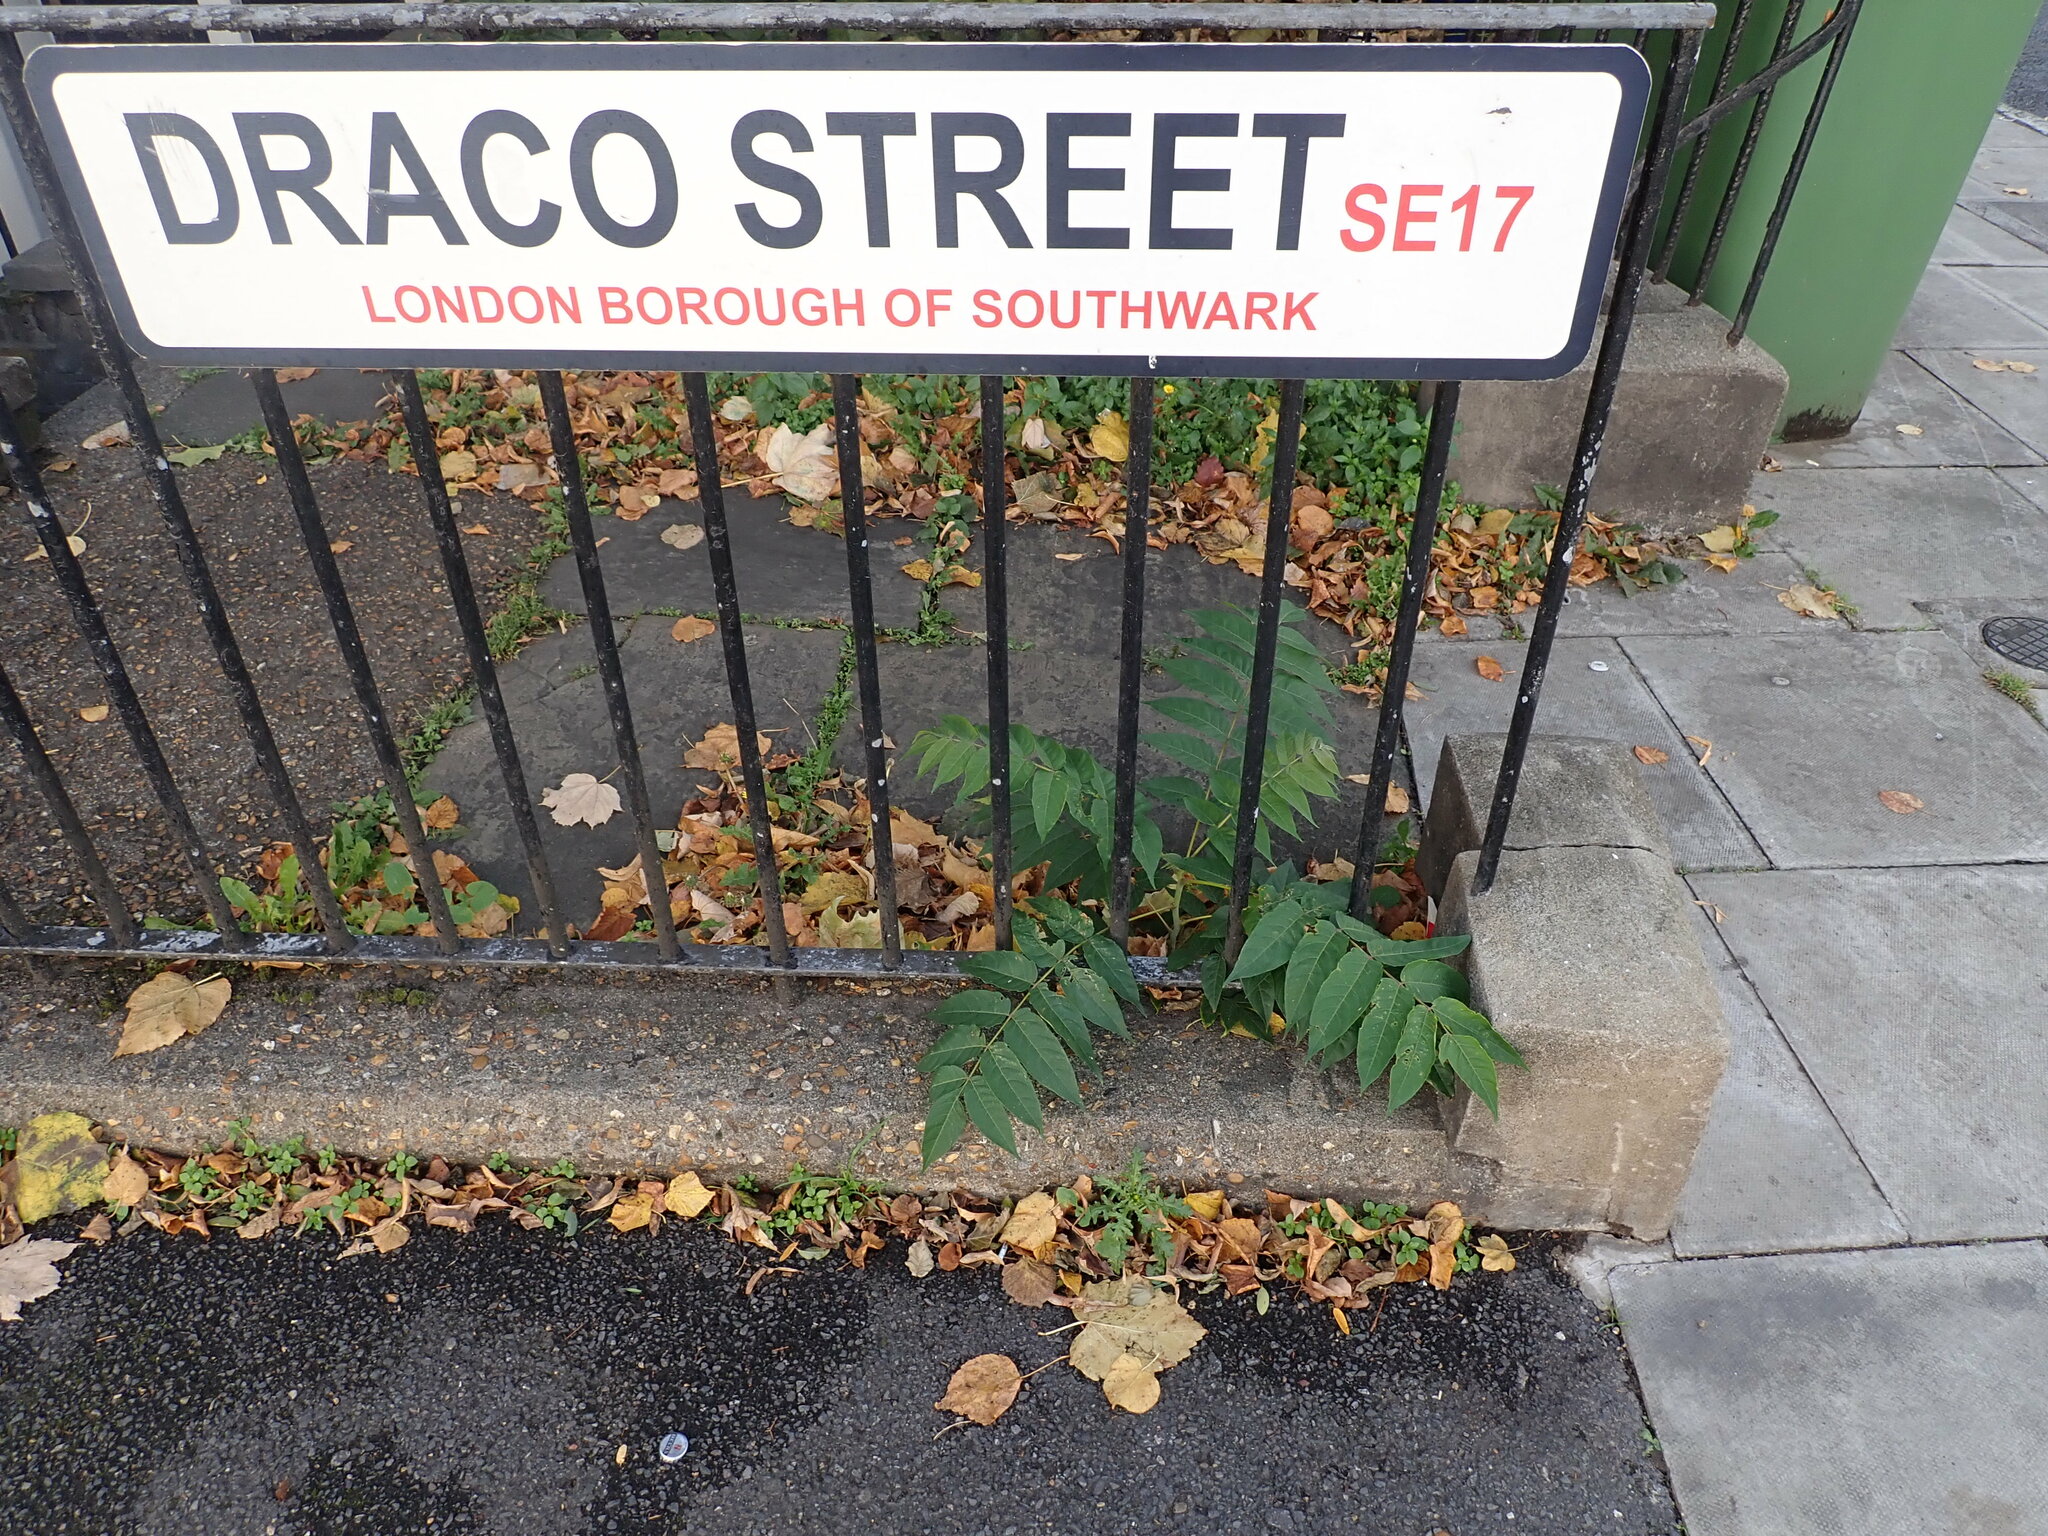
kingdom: Plantae
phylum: Tracheophyta
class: Magnoliopsida
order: Sapindales
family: Simaroubaceae
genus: Ailanthus
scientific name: Ailanthus altissima
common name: Tree-of-heaven
